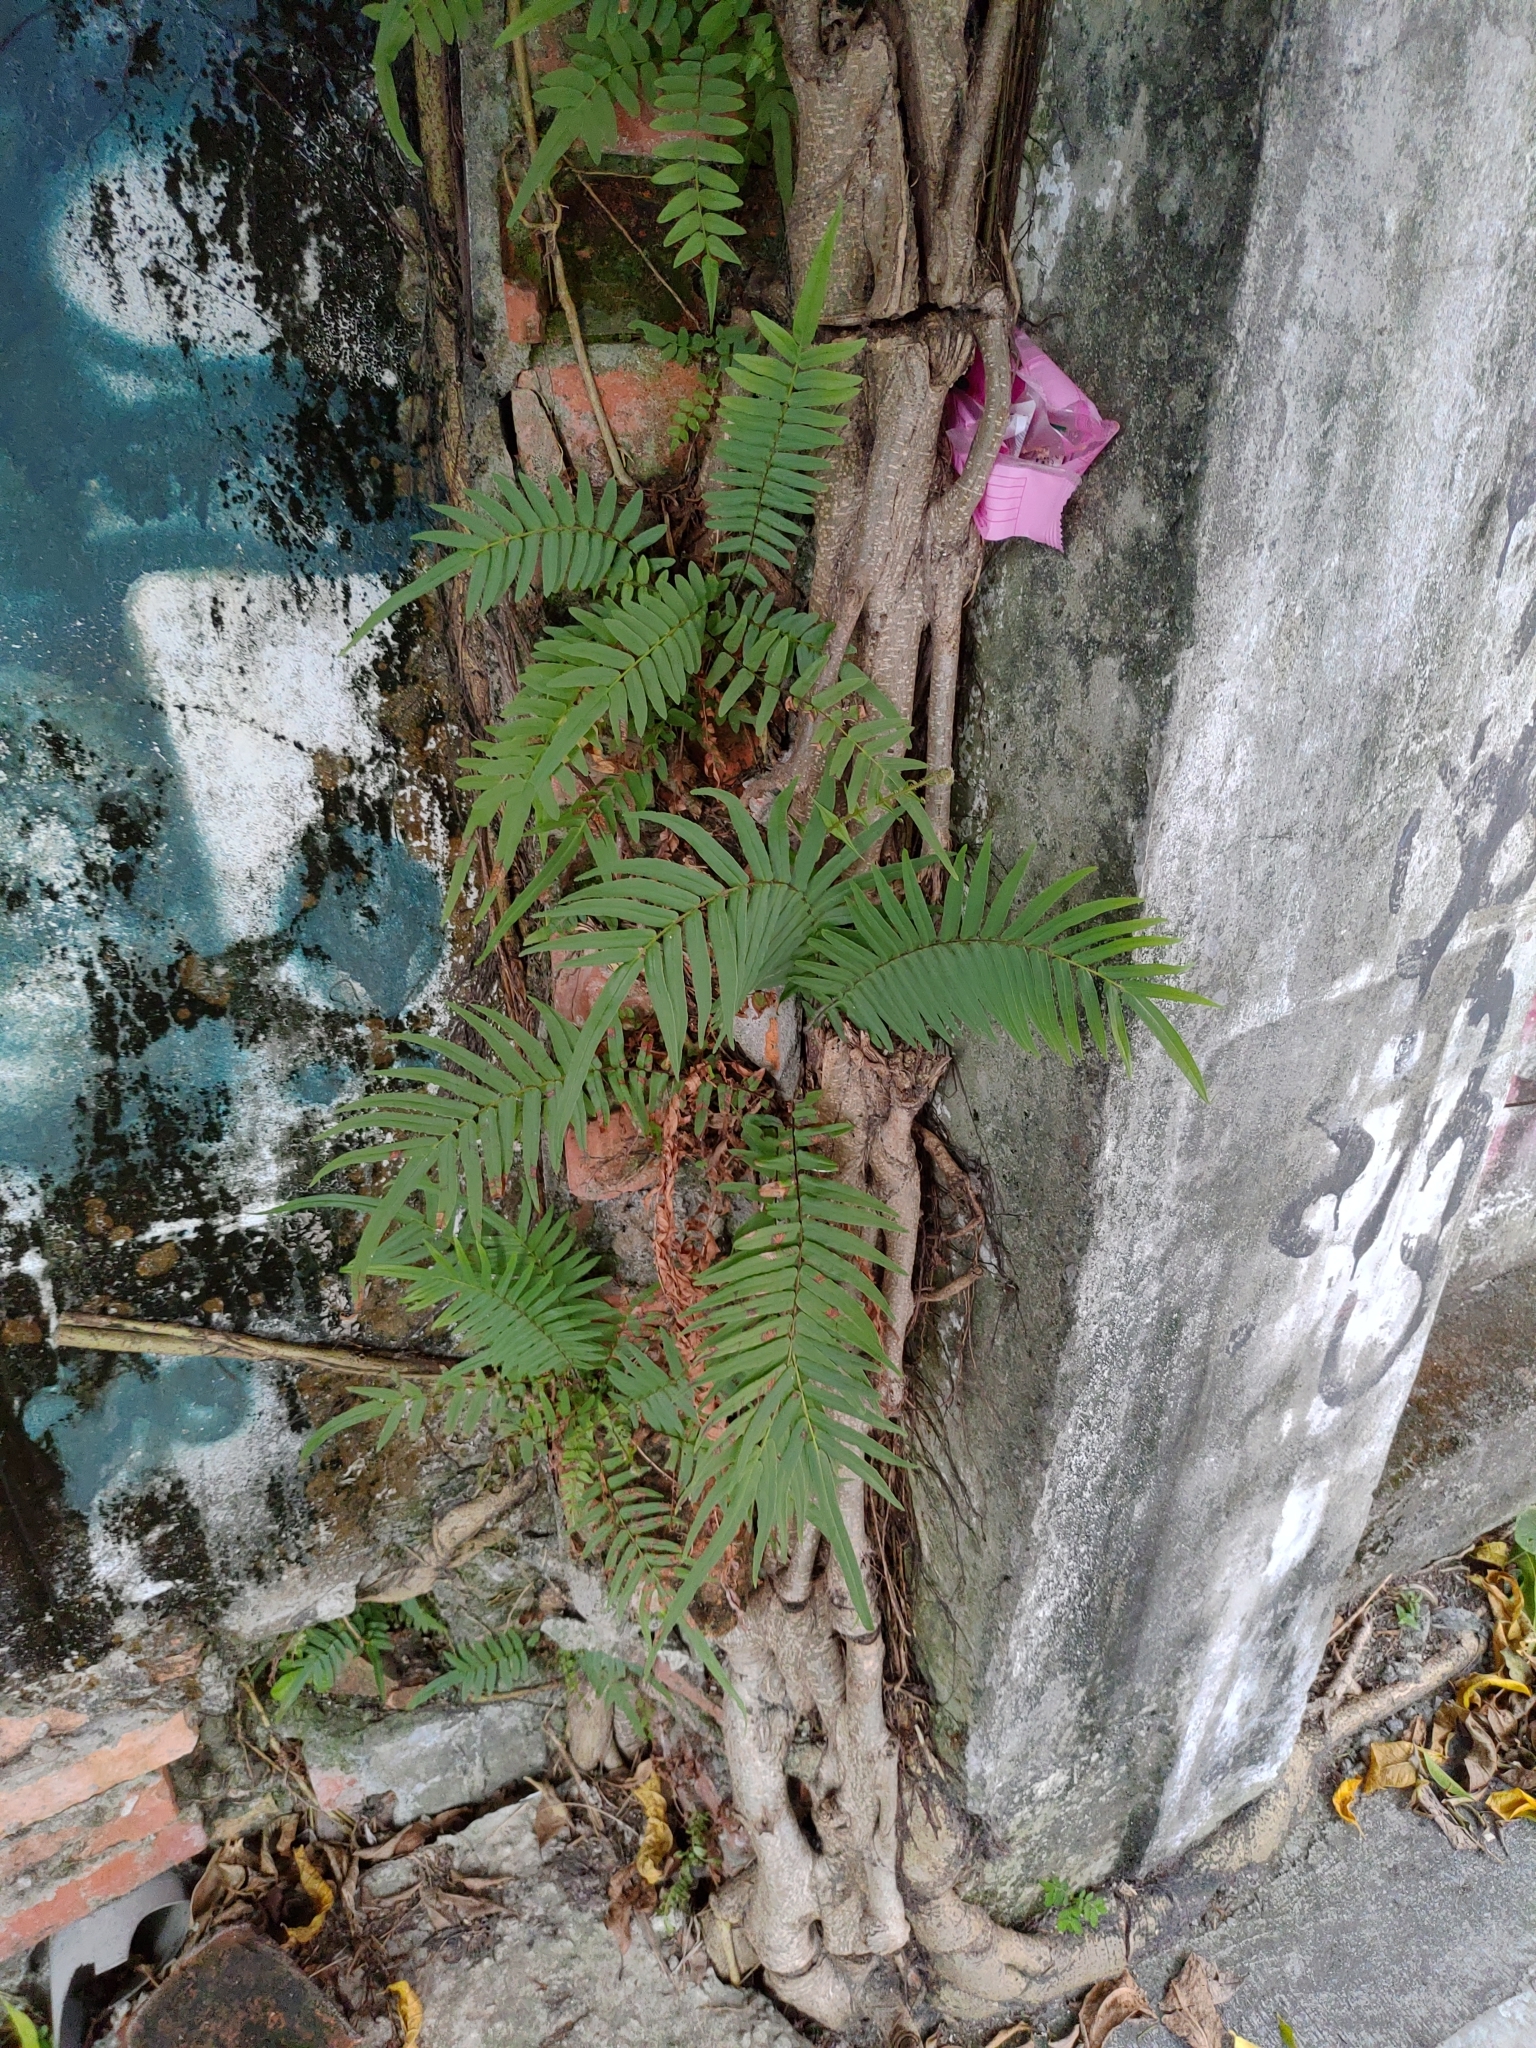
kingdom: Plantae
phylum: Tracheophyta
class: Polypodiopsida
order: Polypodiales
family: Pteridaceae
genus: Pteris
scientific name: Pteris vittata
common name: Ladder brake
